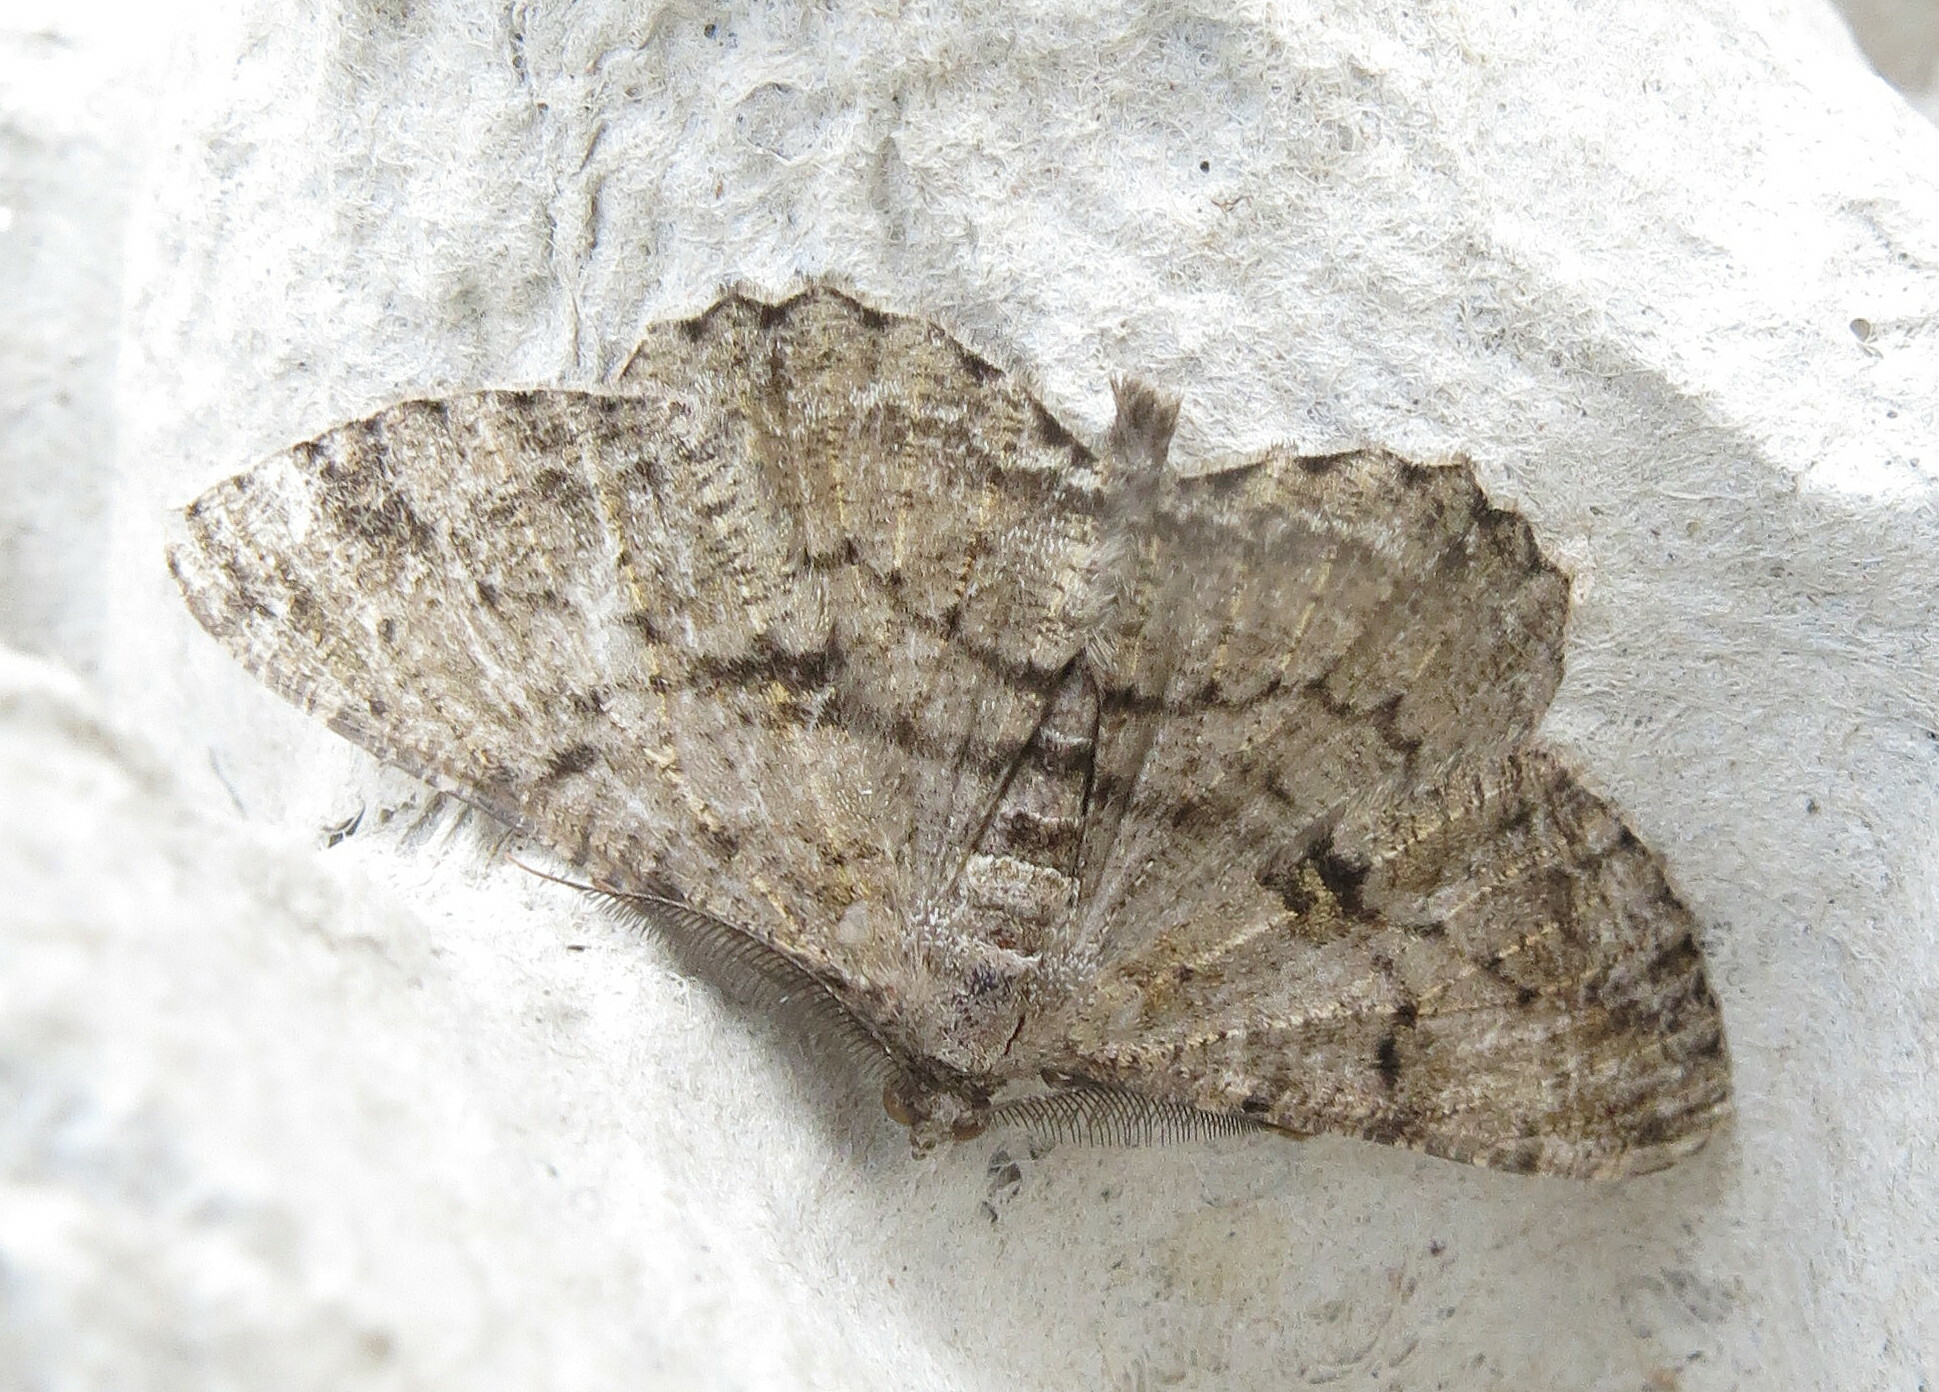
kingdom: Animalia
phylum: Arthropoda
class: Insecta
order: Lepidoptera
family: Geometridae
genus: Peribatodes
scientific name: Peribatodes rhomboidaria
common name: Willow beauty
